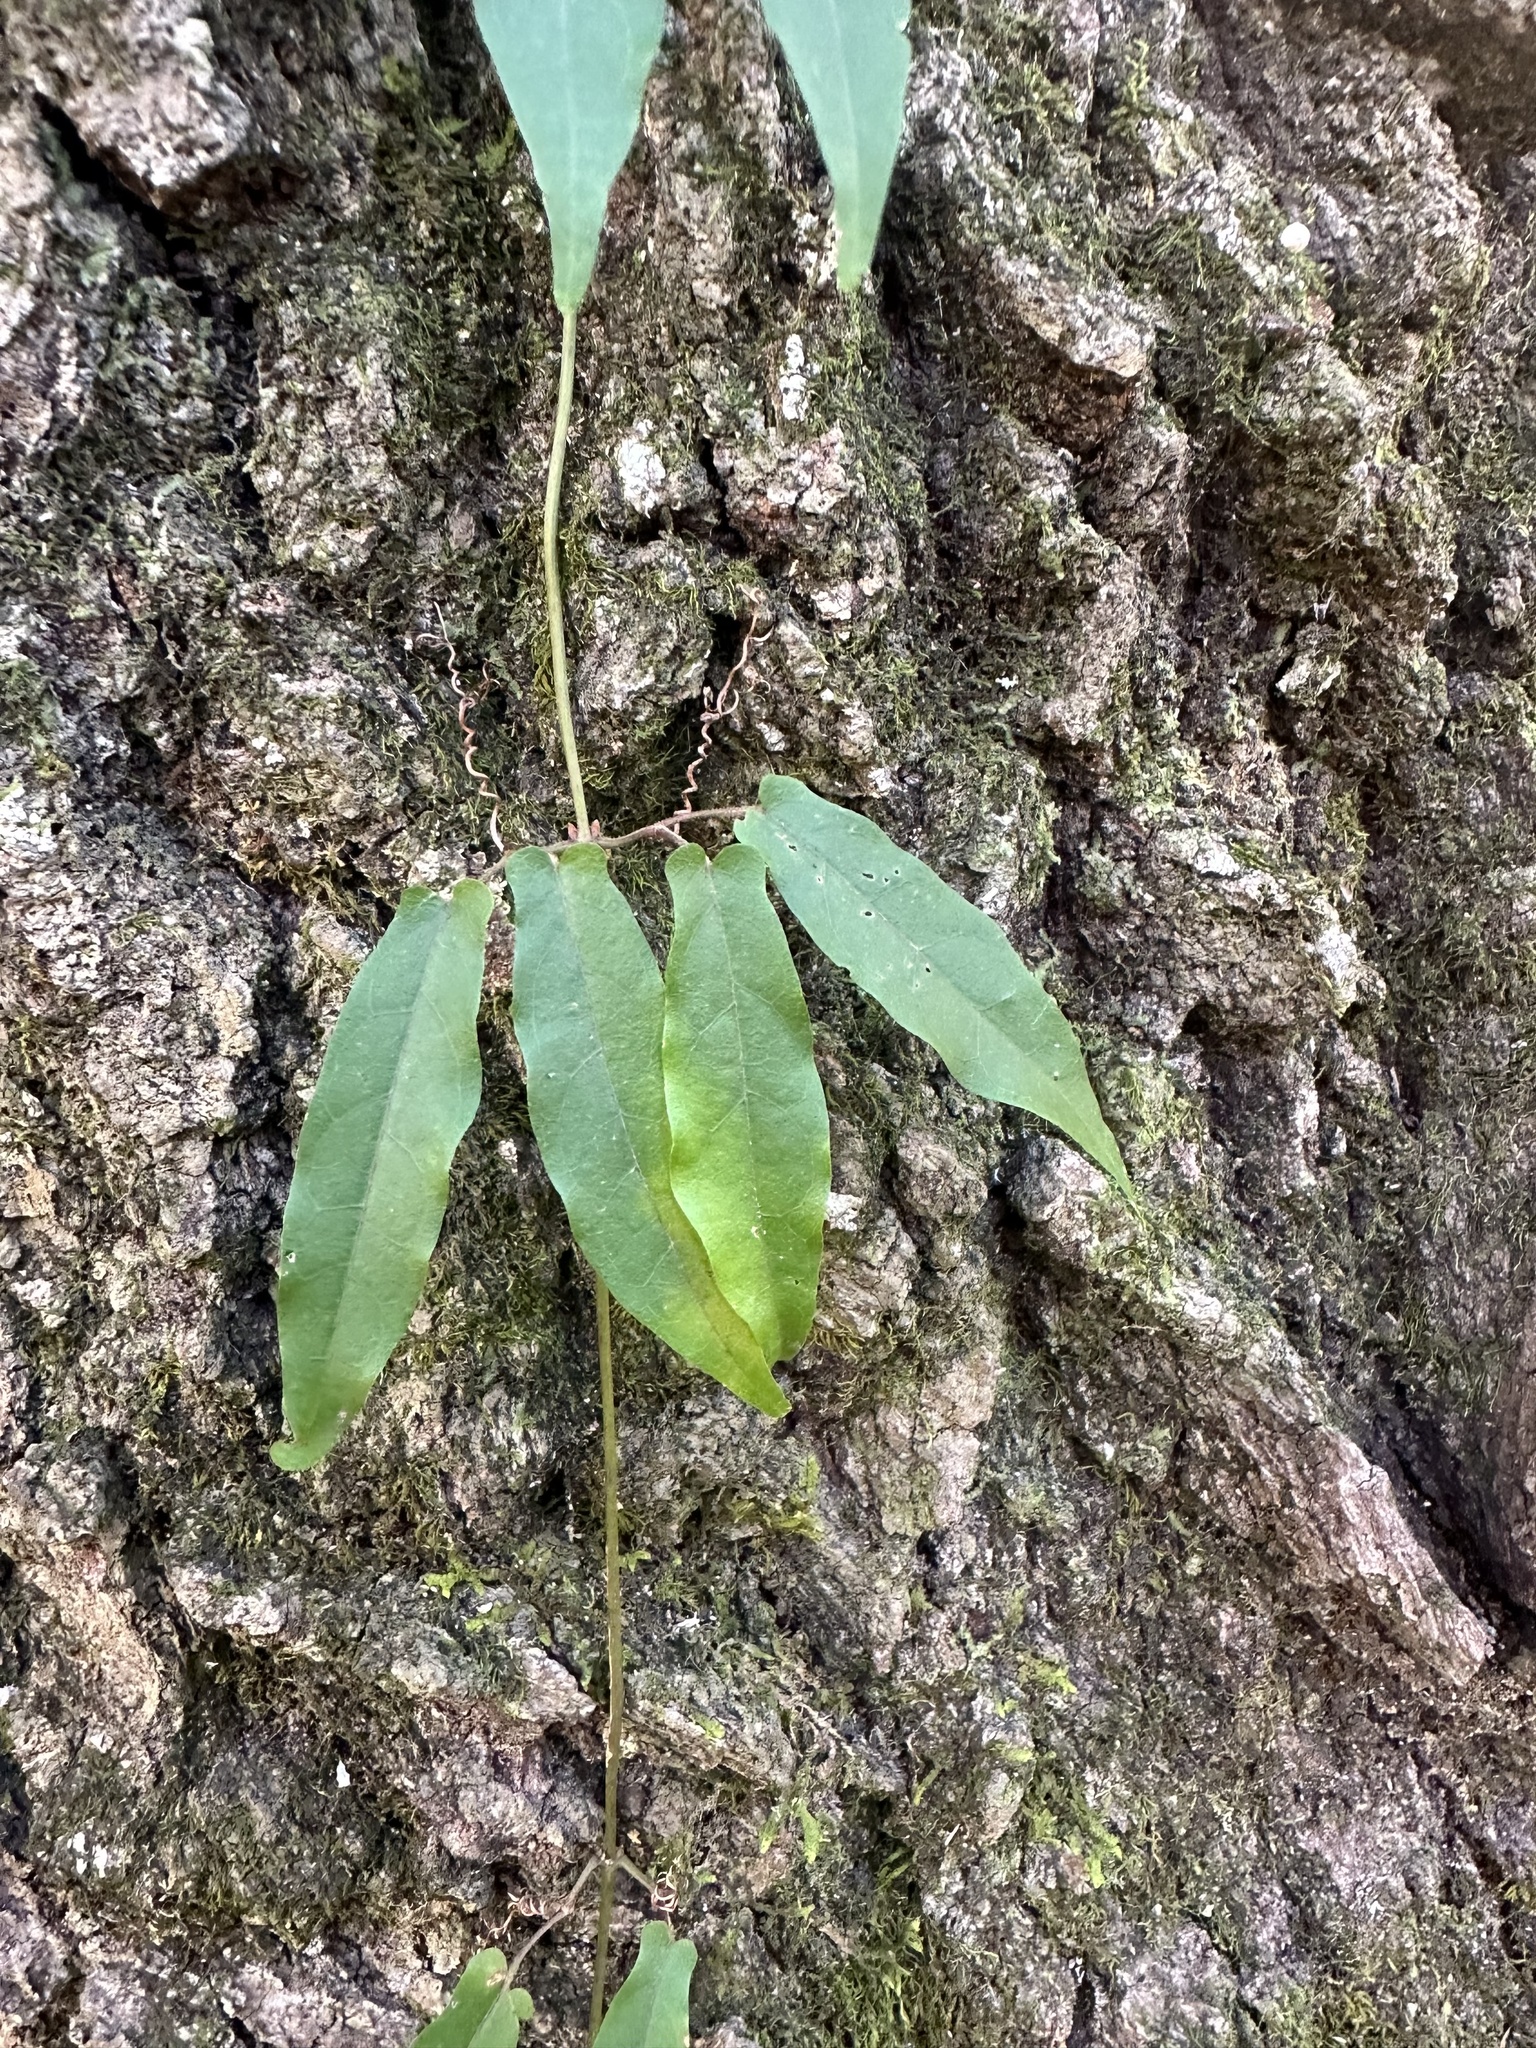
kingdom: Plantae
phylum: Tracheophyta
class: Magnoliopsida
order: Lamiales
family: Bignoniaceae
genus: Bignonia
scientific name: Bignonia capreolata
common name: Crossvine
